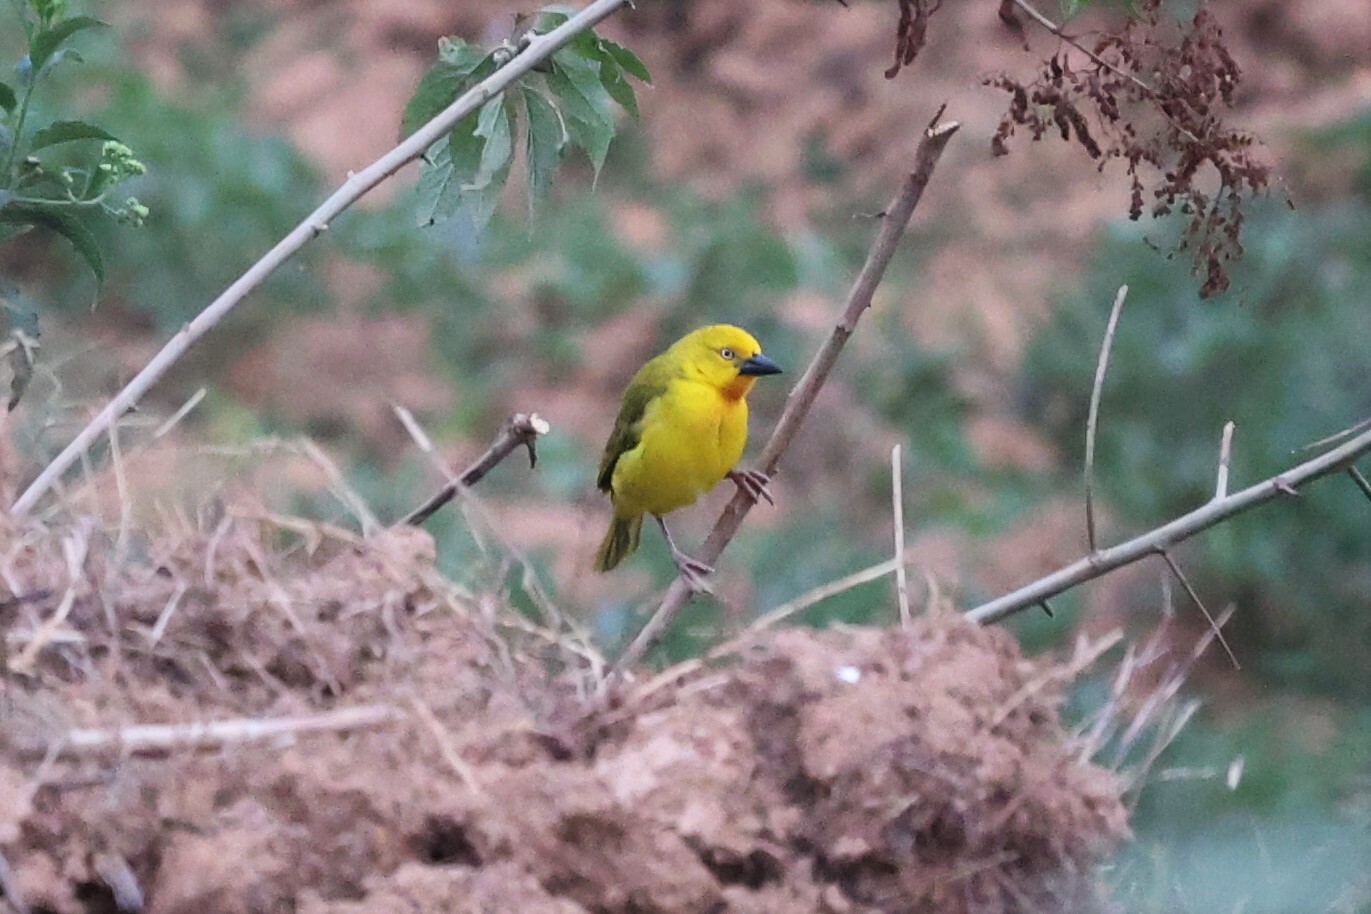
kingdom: Animalia
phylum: Chordata
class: Aves
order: Passeriformes
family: Ploceidae
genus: Ploceus
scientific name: Ploceus xanthops
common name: Holub's golden weaver
